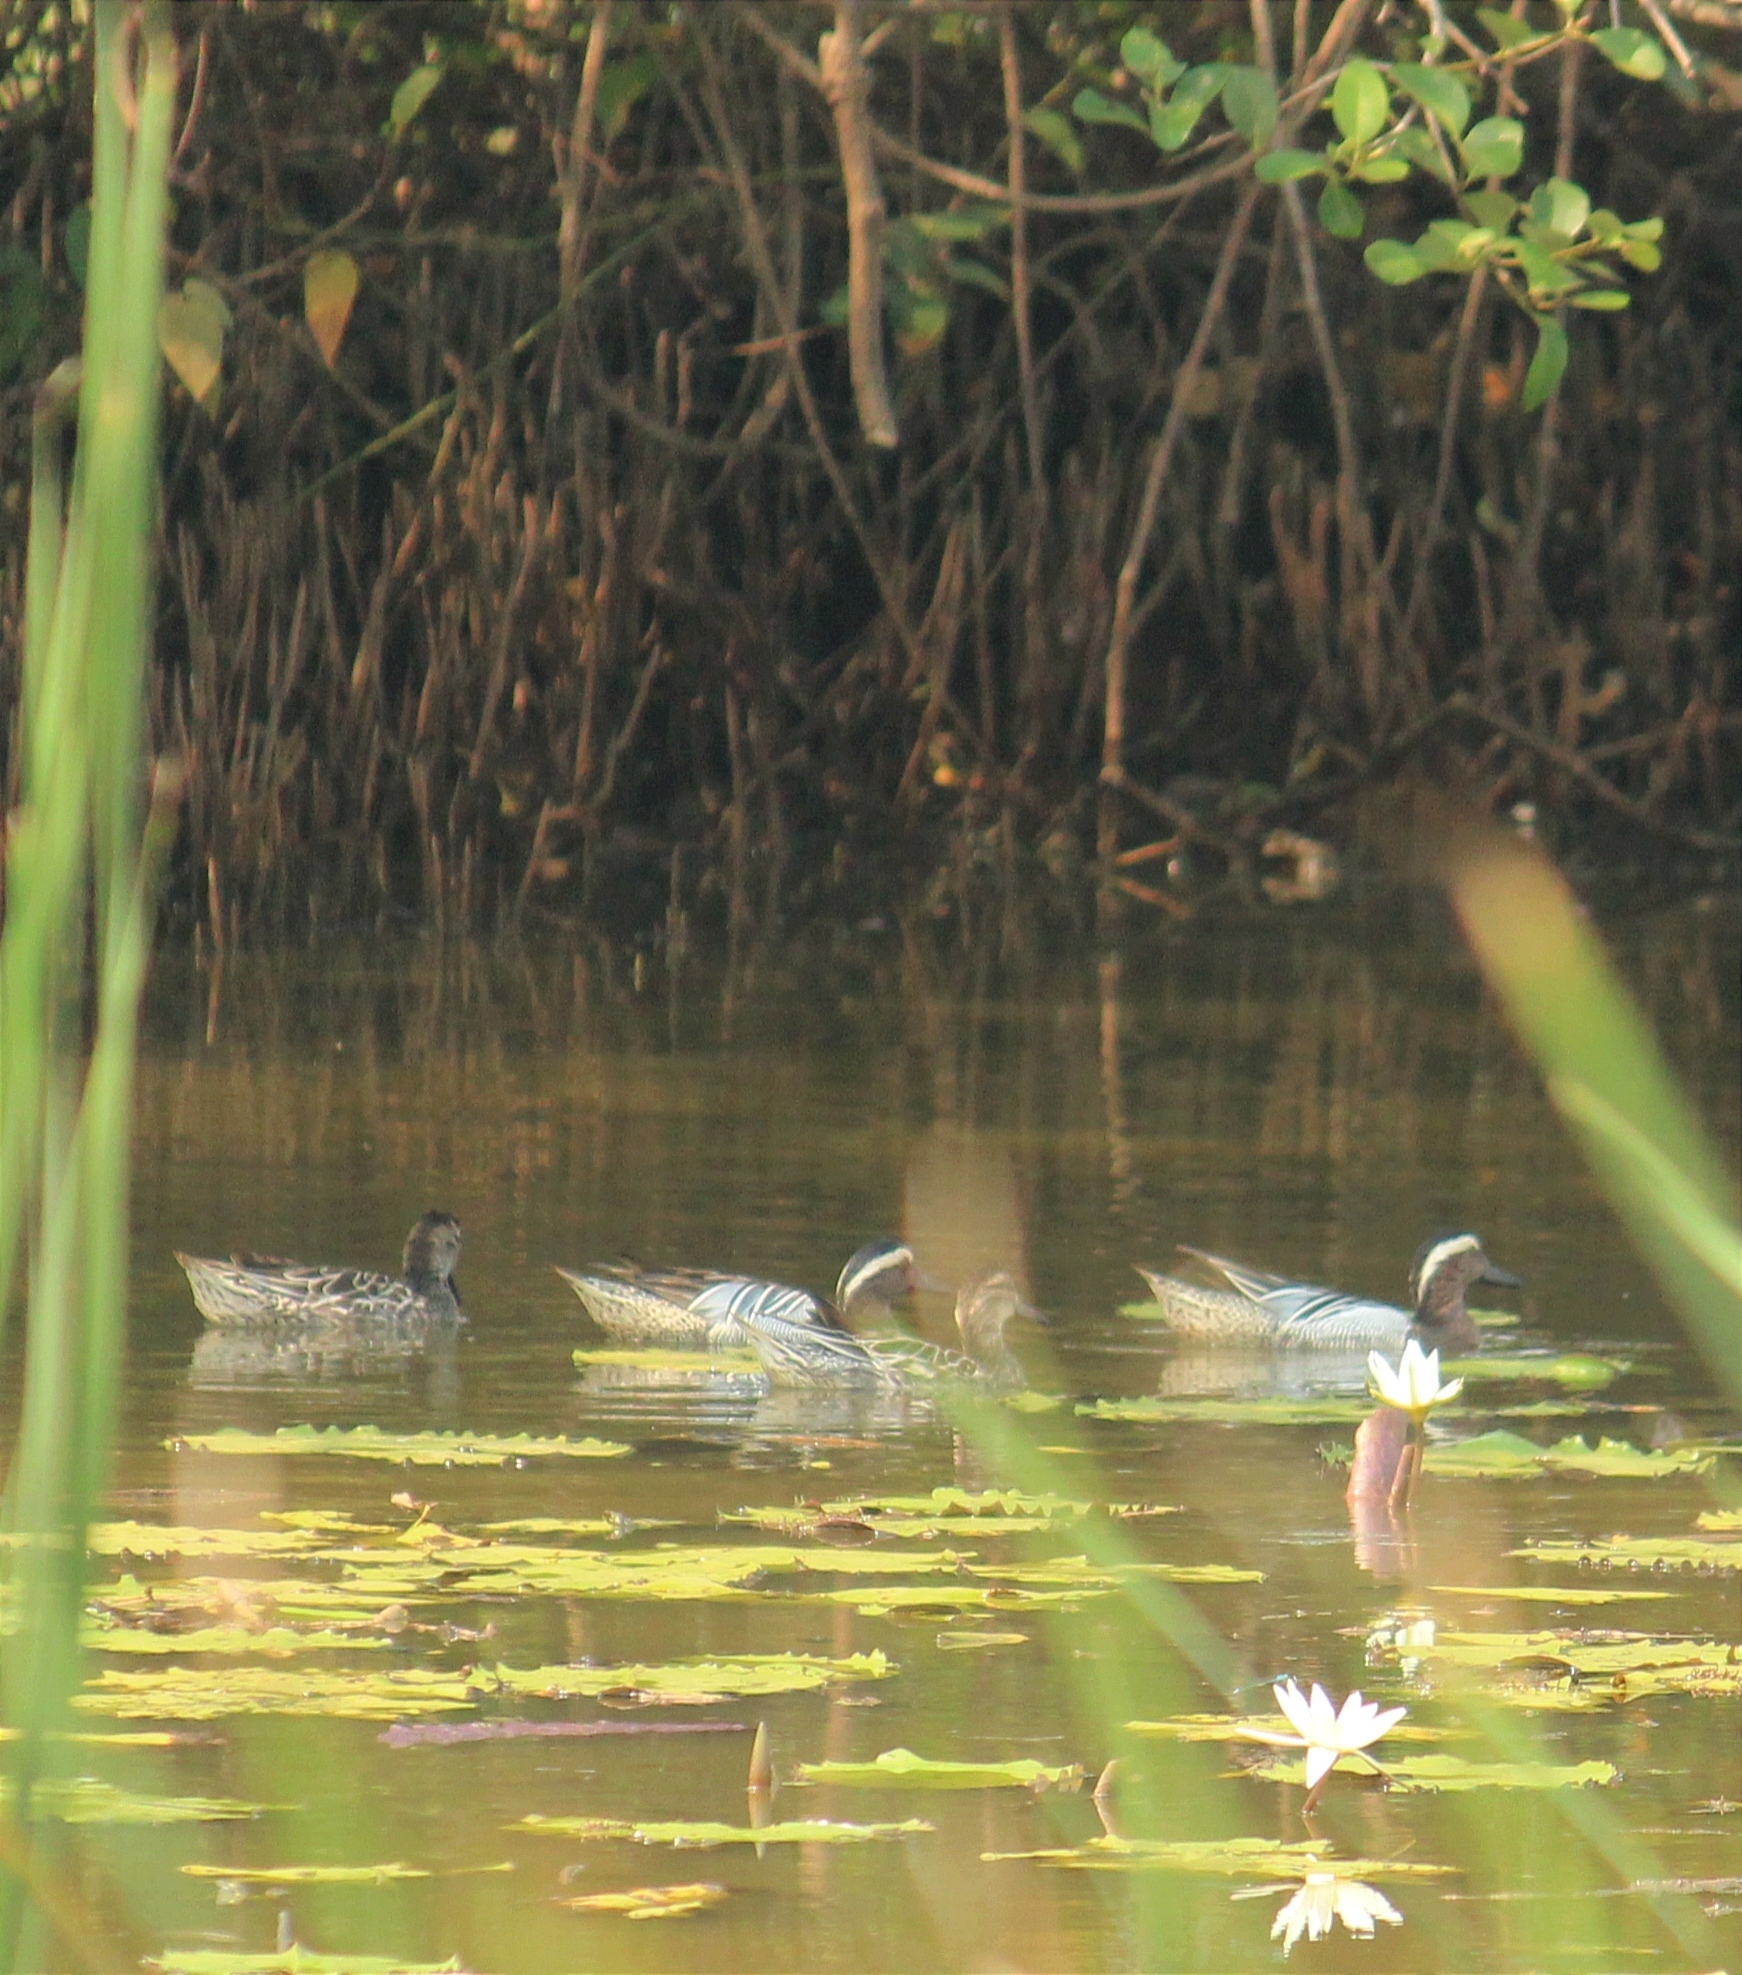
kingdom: Animalia
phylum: Chordata
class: Aves
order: Anseriformes
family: Anatidae
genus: Spatula
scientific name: Spatula querquedula
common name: Garganey
